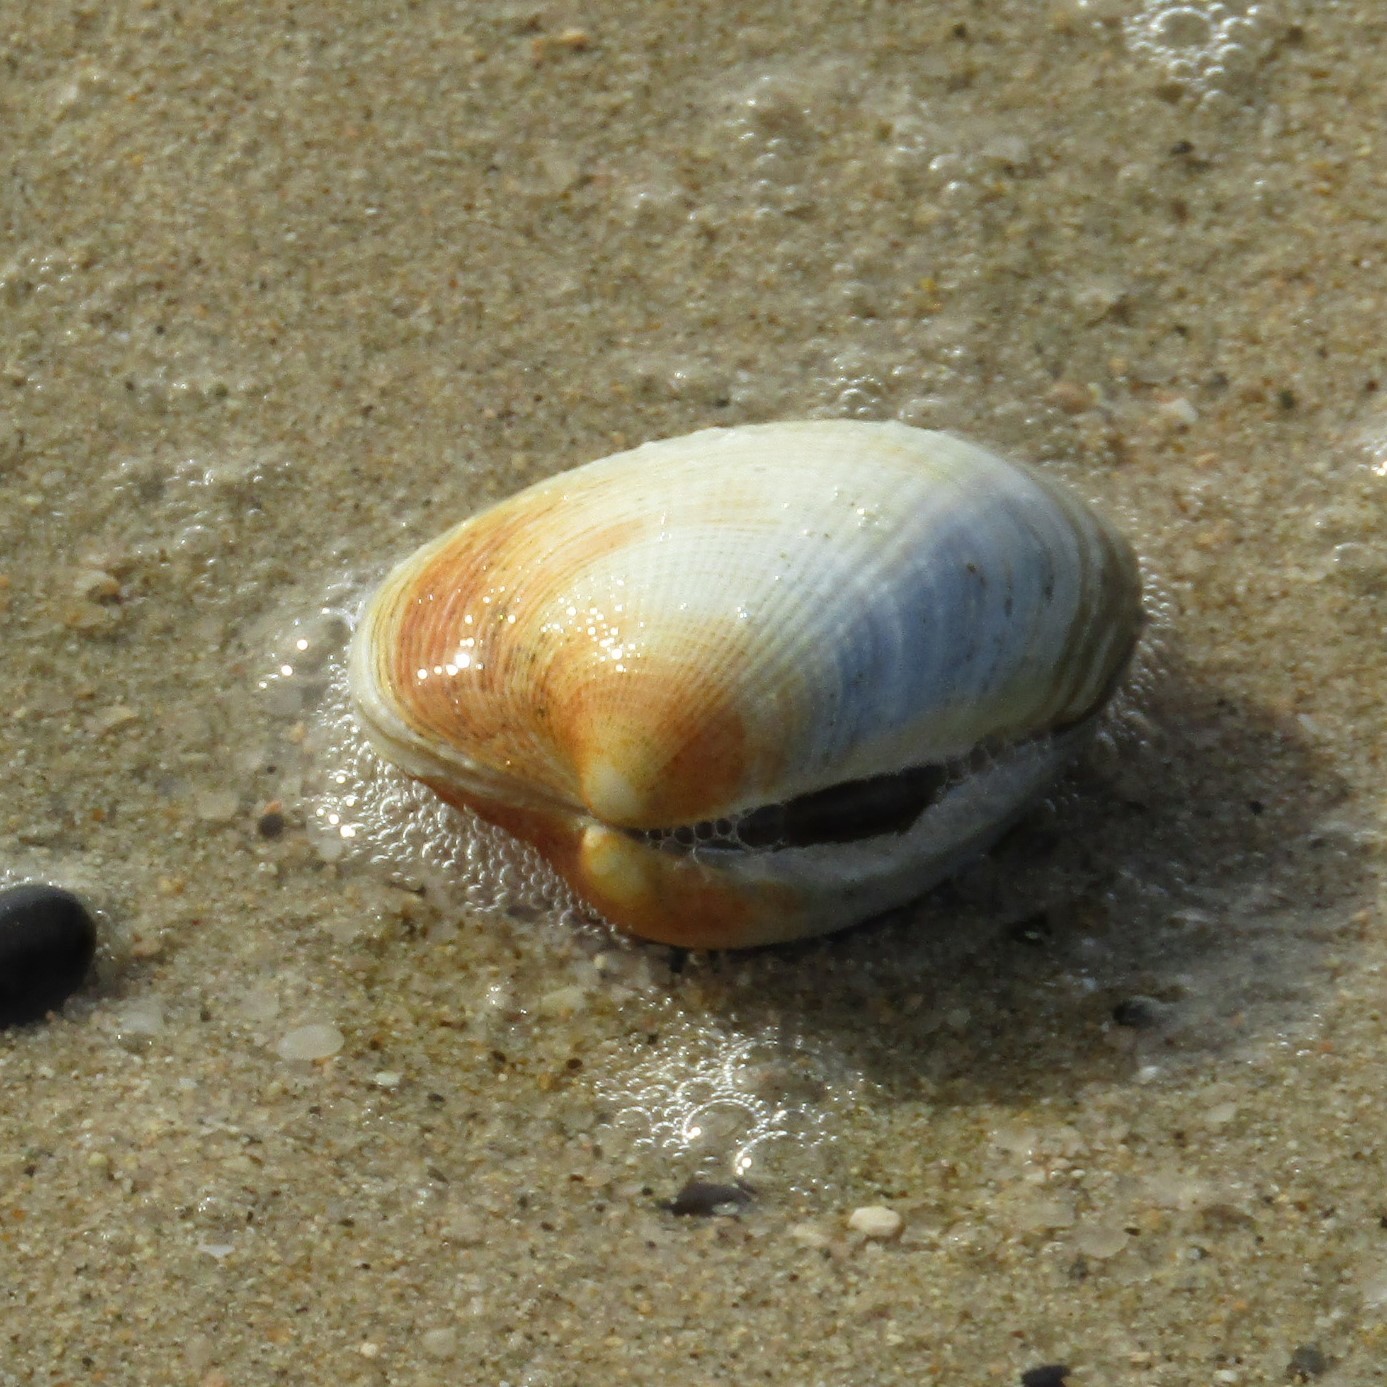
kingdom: Animalia
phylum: Mollusca
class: Bivalvia
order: Venerida
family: Veneridae
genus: Austrovenus
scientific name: Austrovenus stutchburyi
